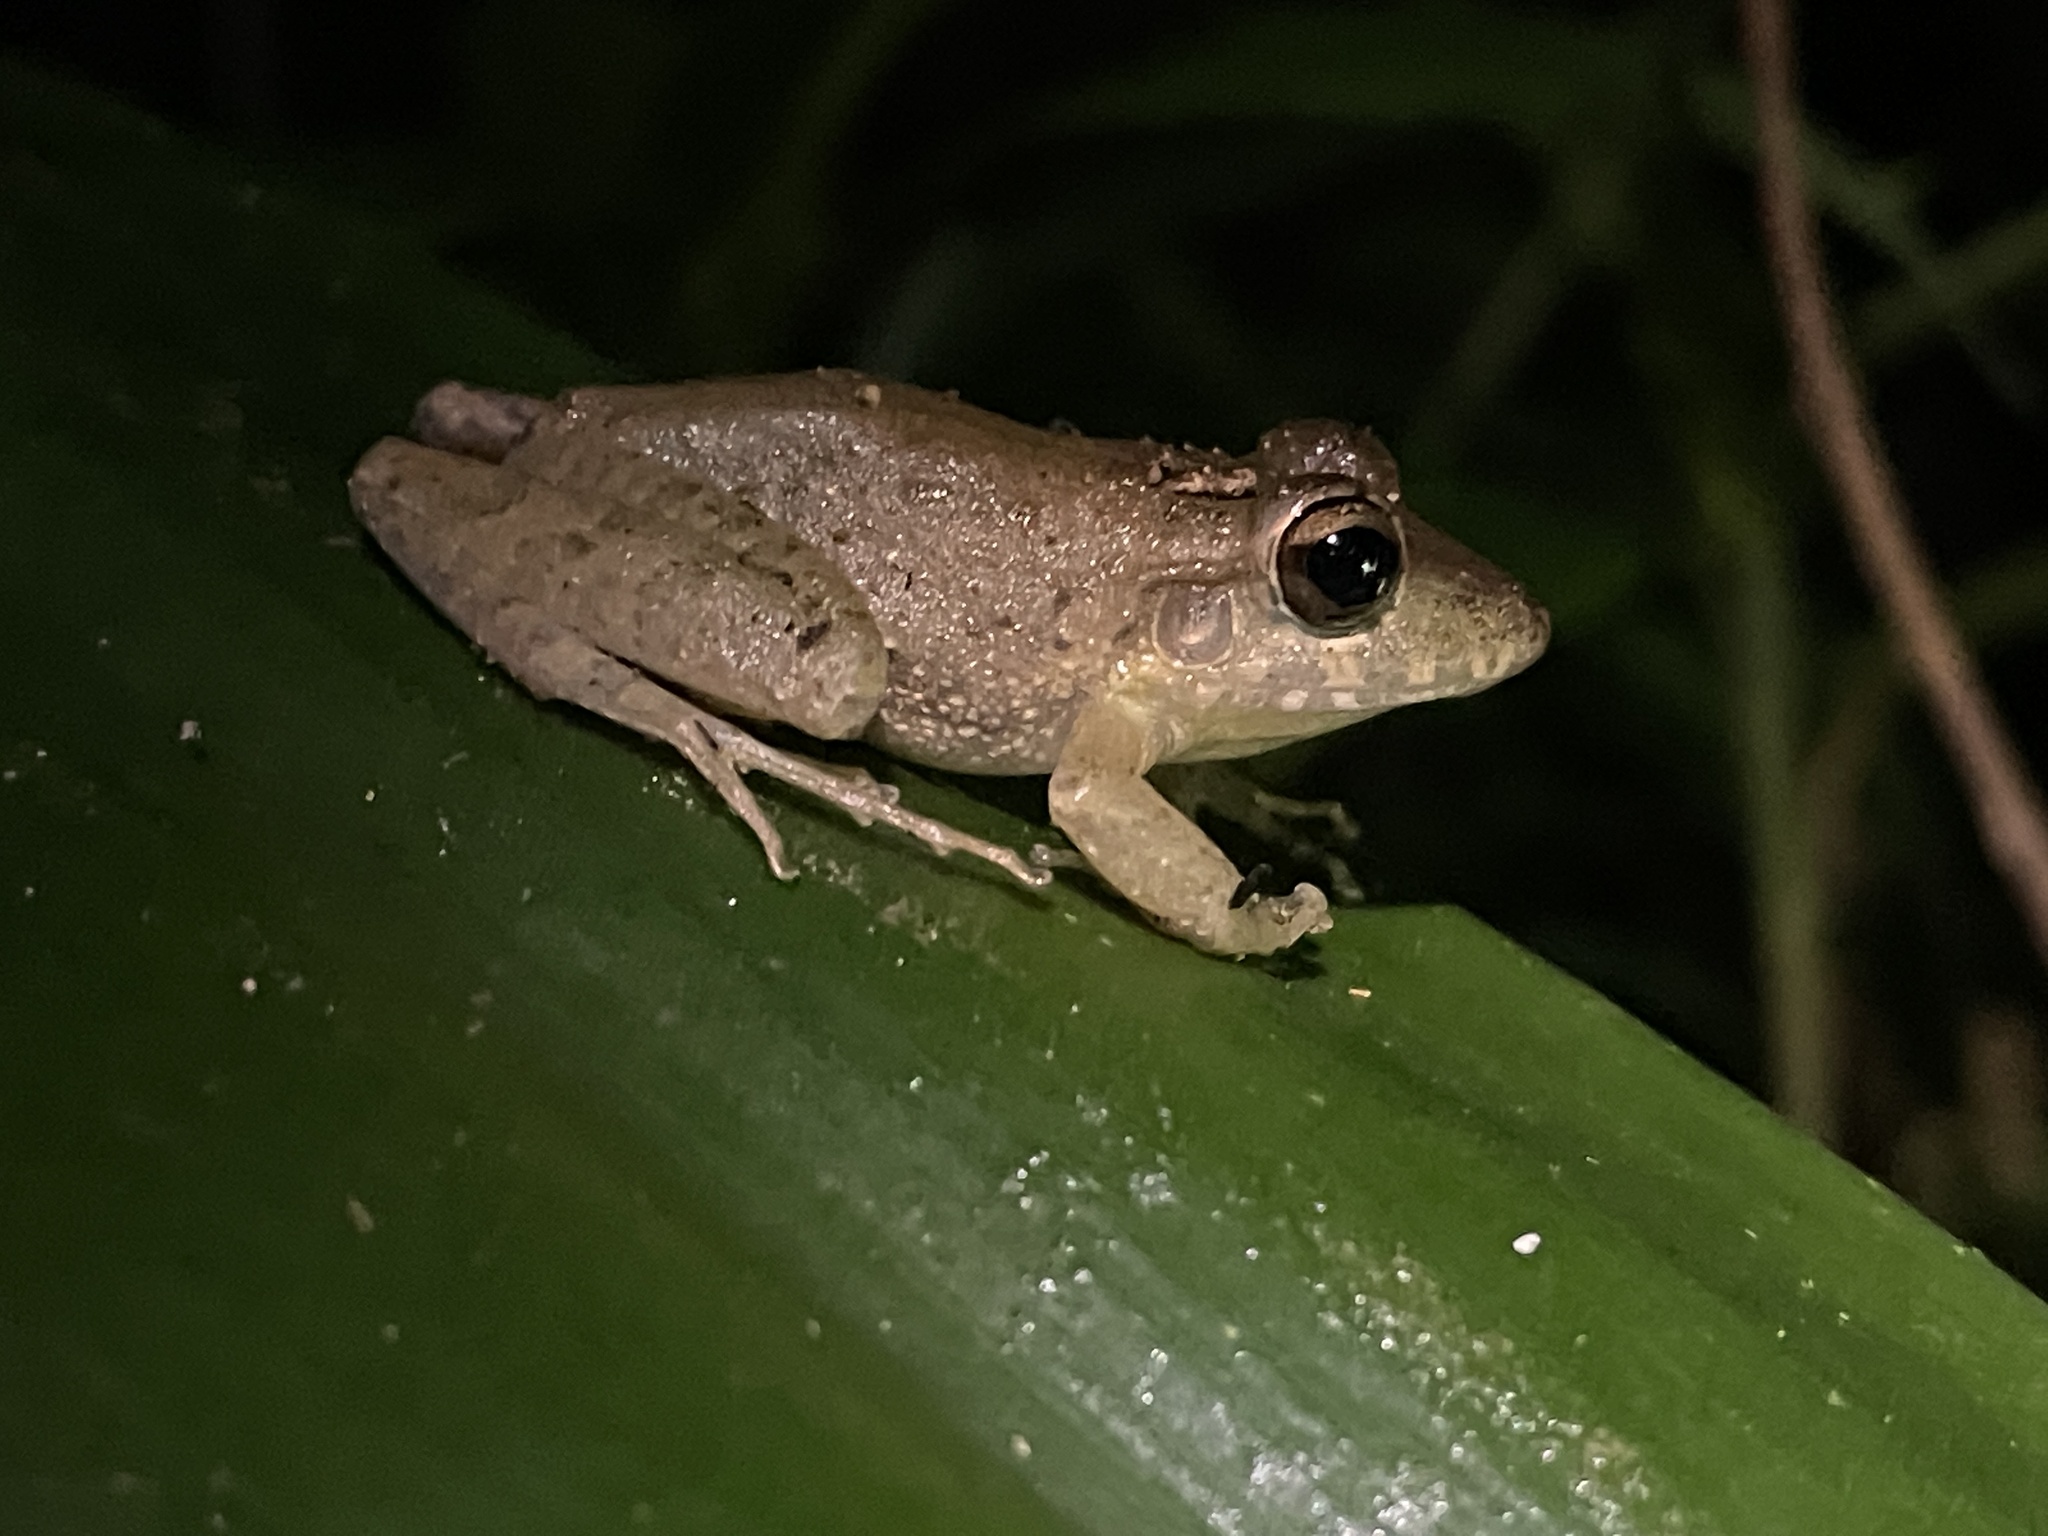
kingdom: Animalia
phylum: Chordata
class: Amphibia
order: Anura
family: Craugastoridae
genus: Craugastor
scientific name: Craugastor fitzingeri
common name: Fitzinger's robber frog
